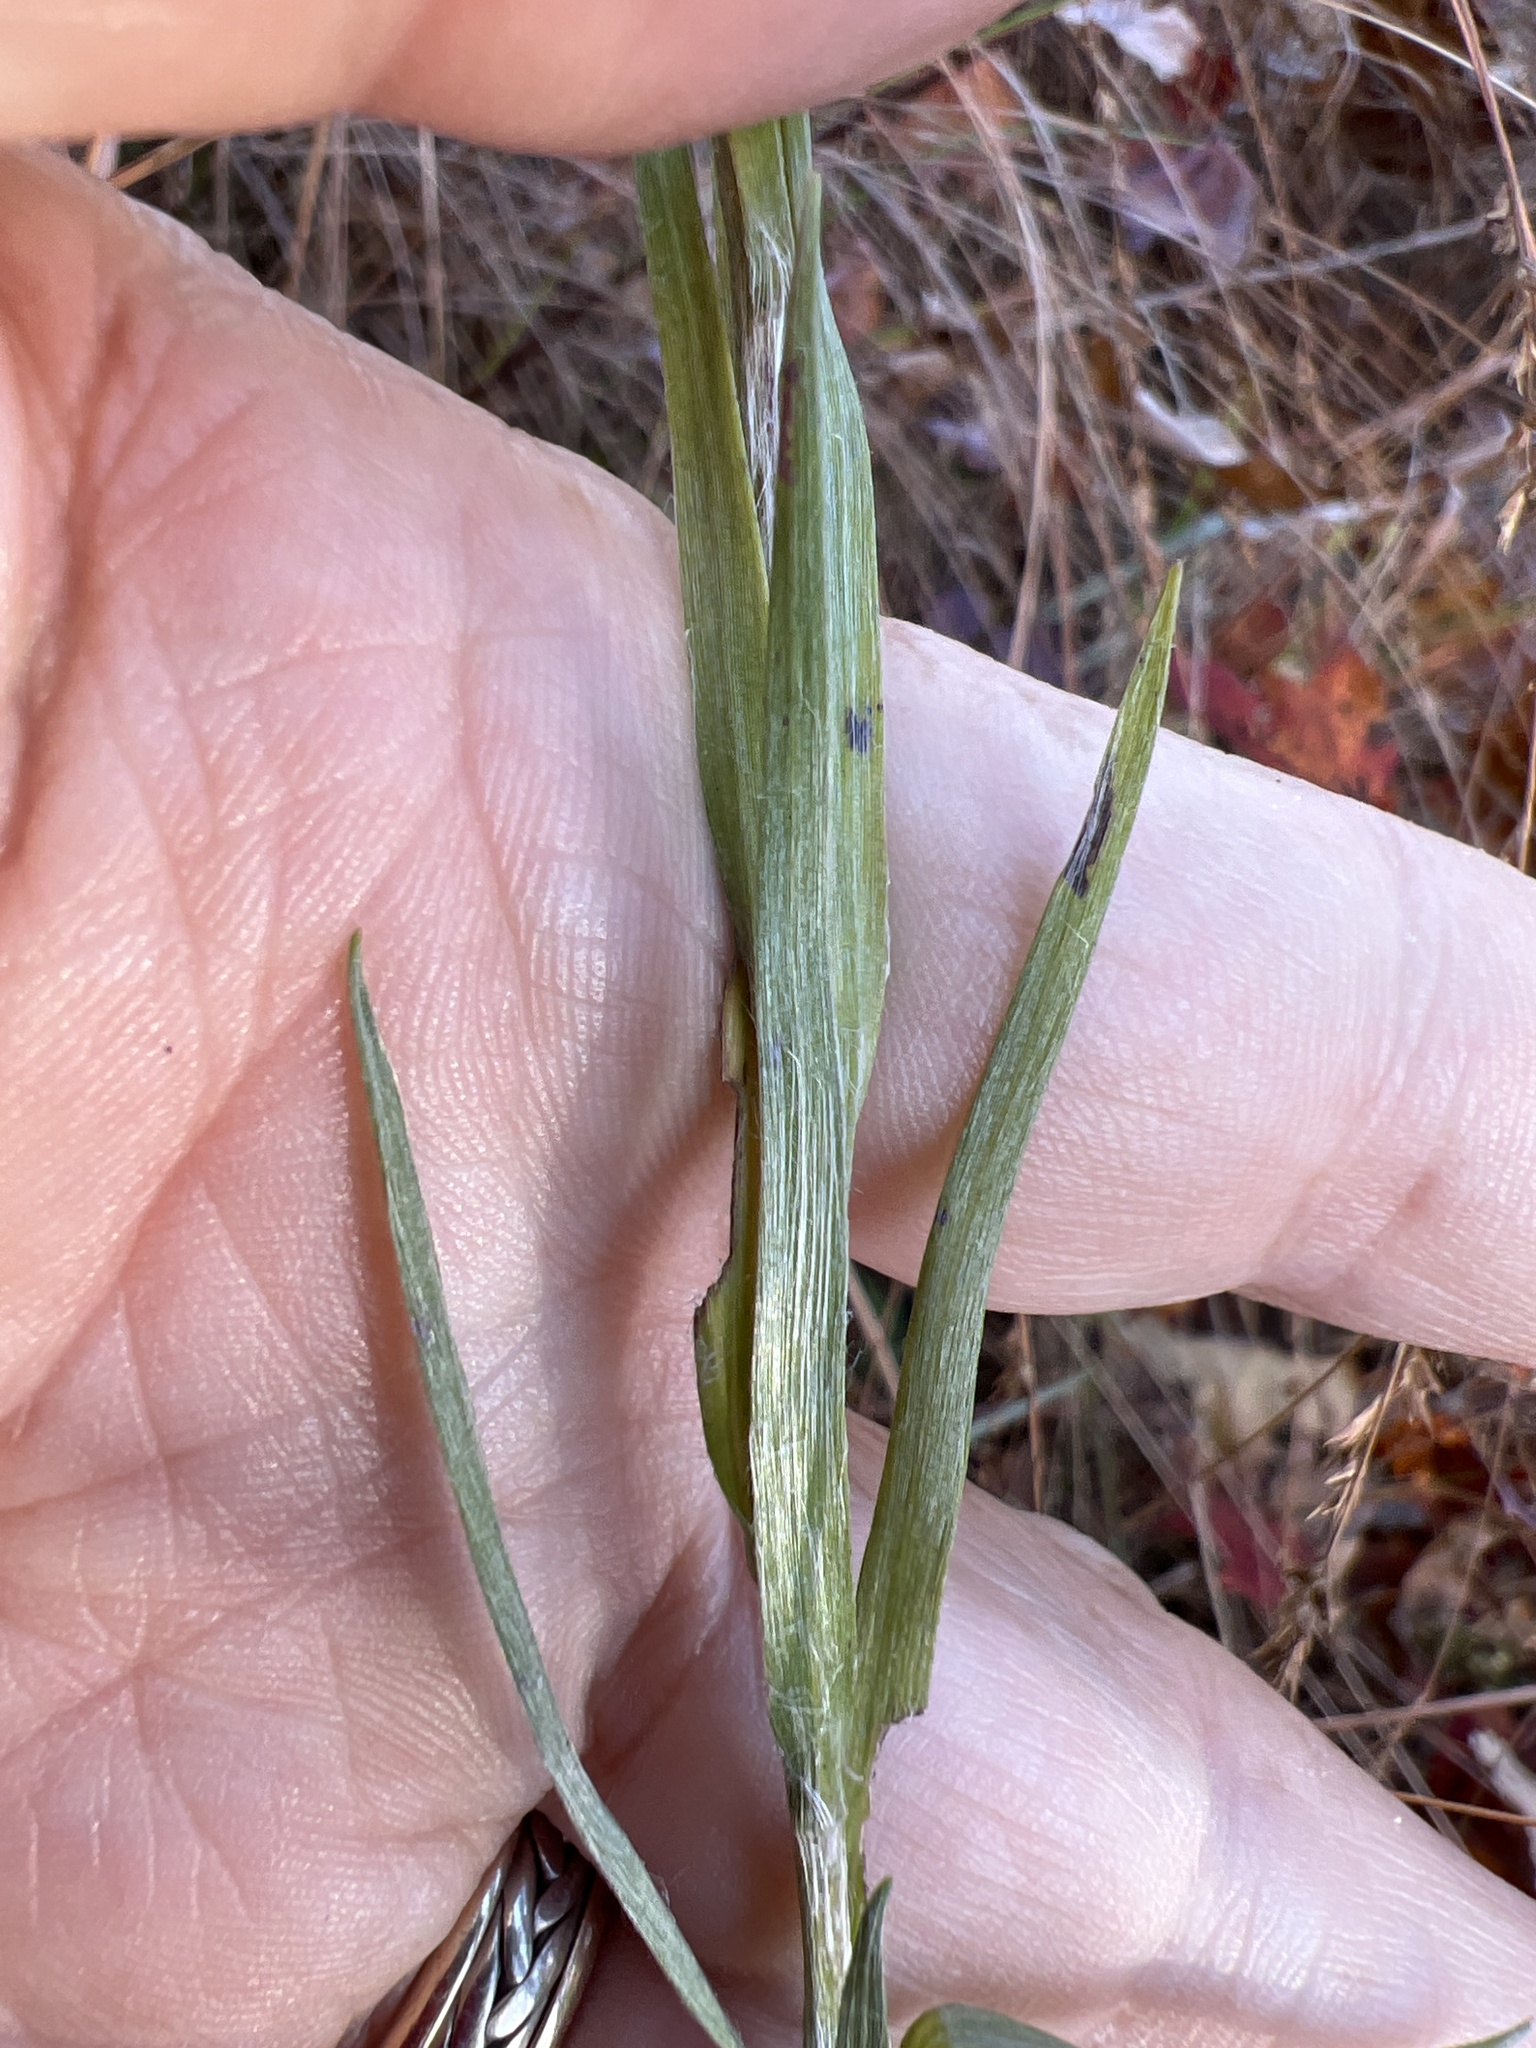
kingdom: Plantae
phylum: Tracheophyta
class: Magnoliopsida
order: Asterales
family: Asteraceae
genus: Pityopsis
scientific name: Pityopsis aspera
